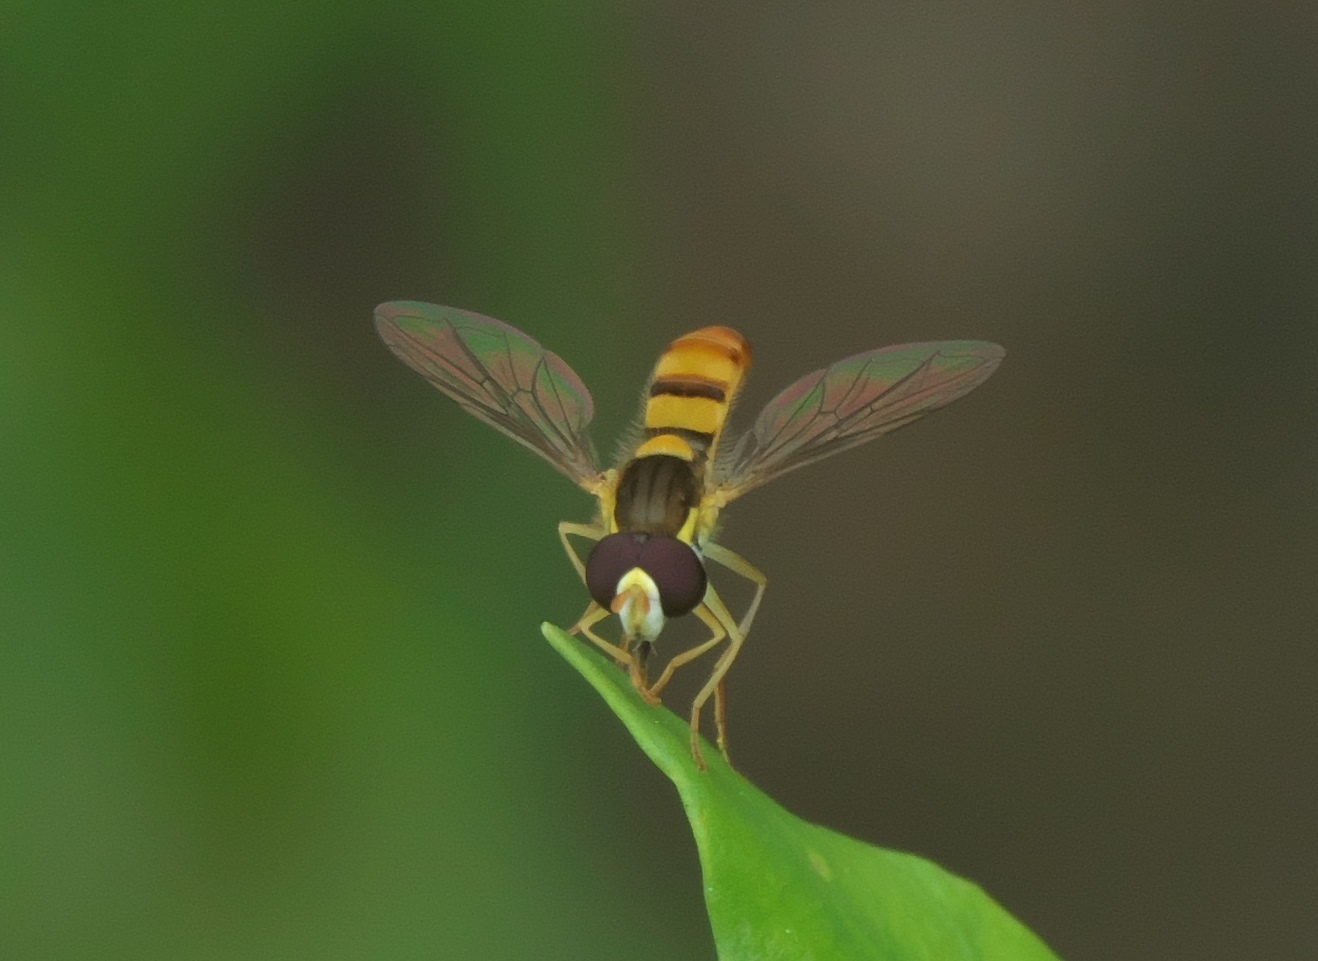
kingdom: Animalia
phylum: Arthropoda
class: Insecta
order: Diptera
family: Syrphidae
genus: Sphaerophoria
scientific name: Sphaerophoria contigua
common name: Tufted globetail
